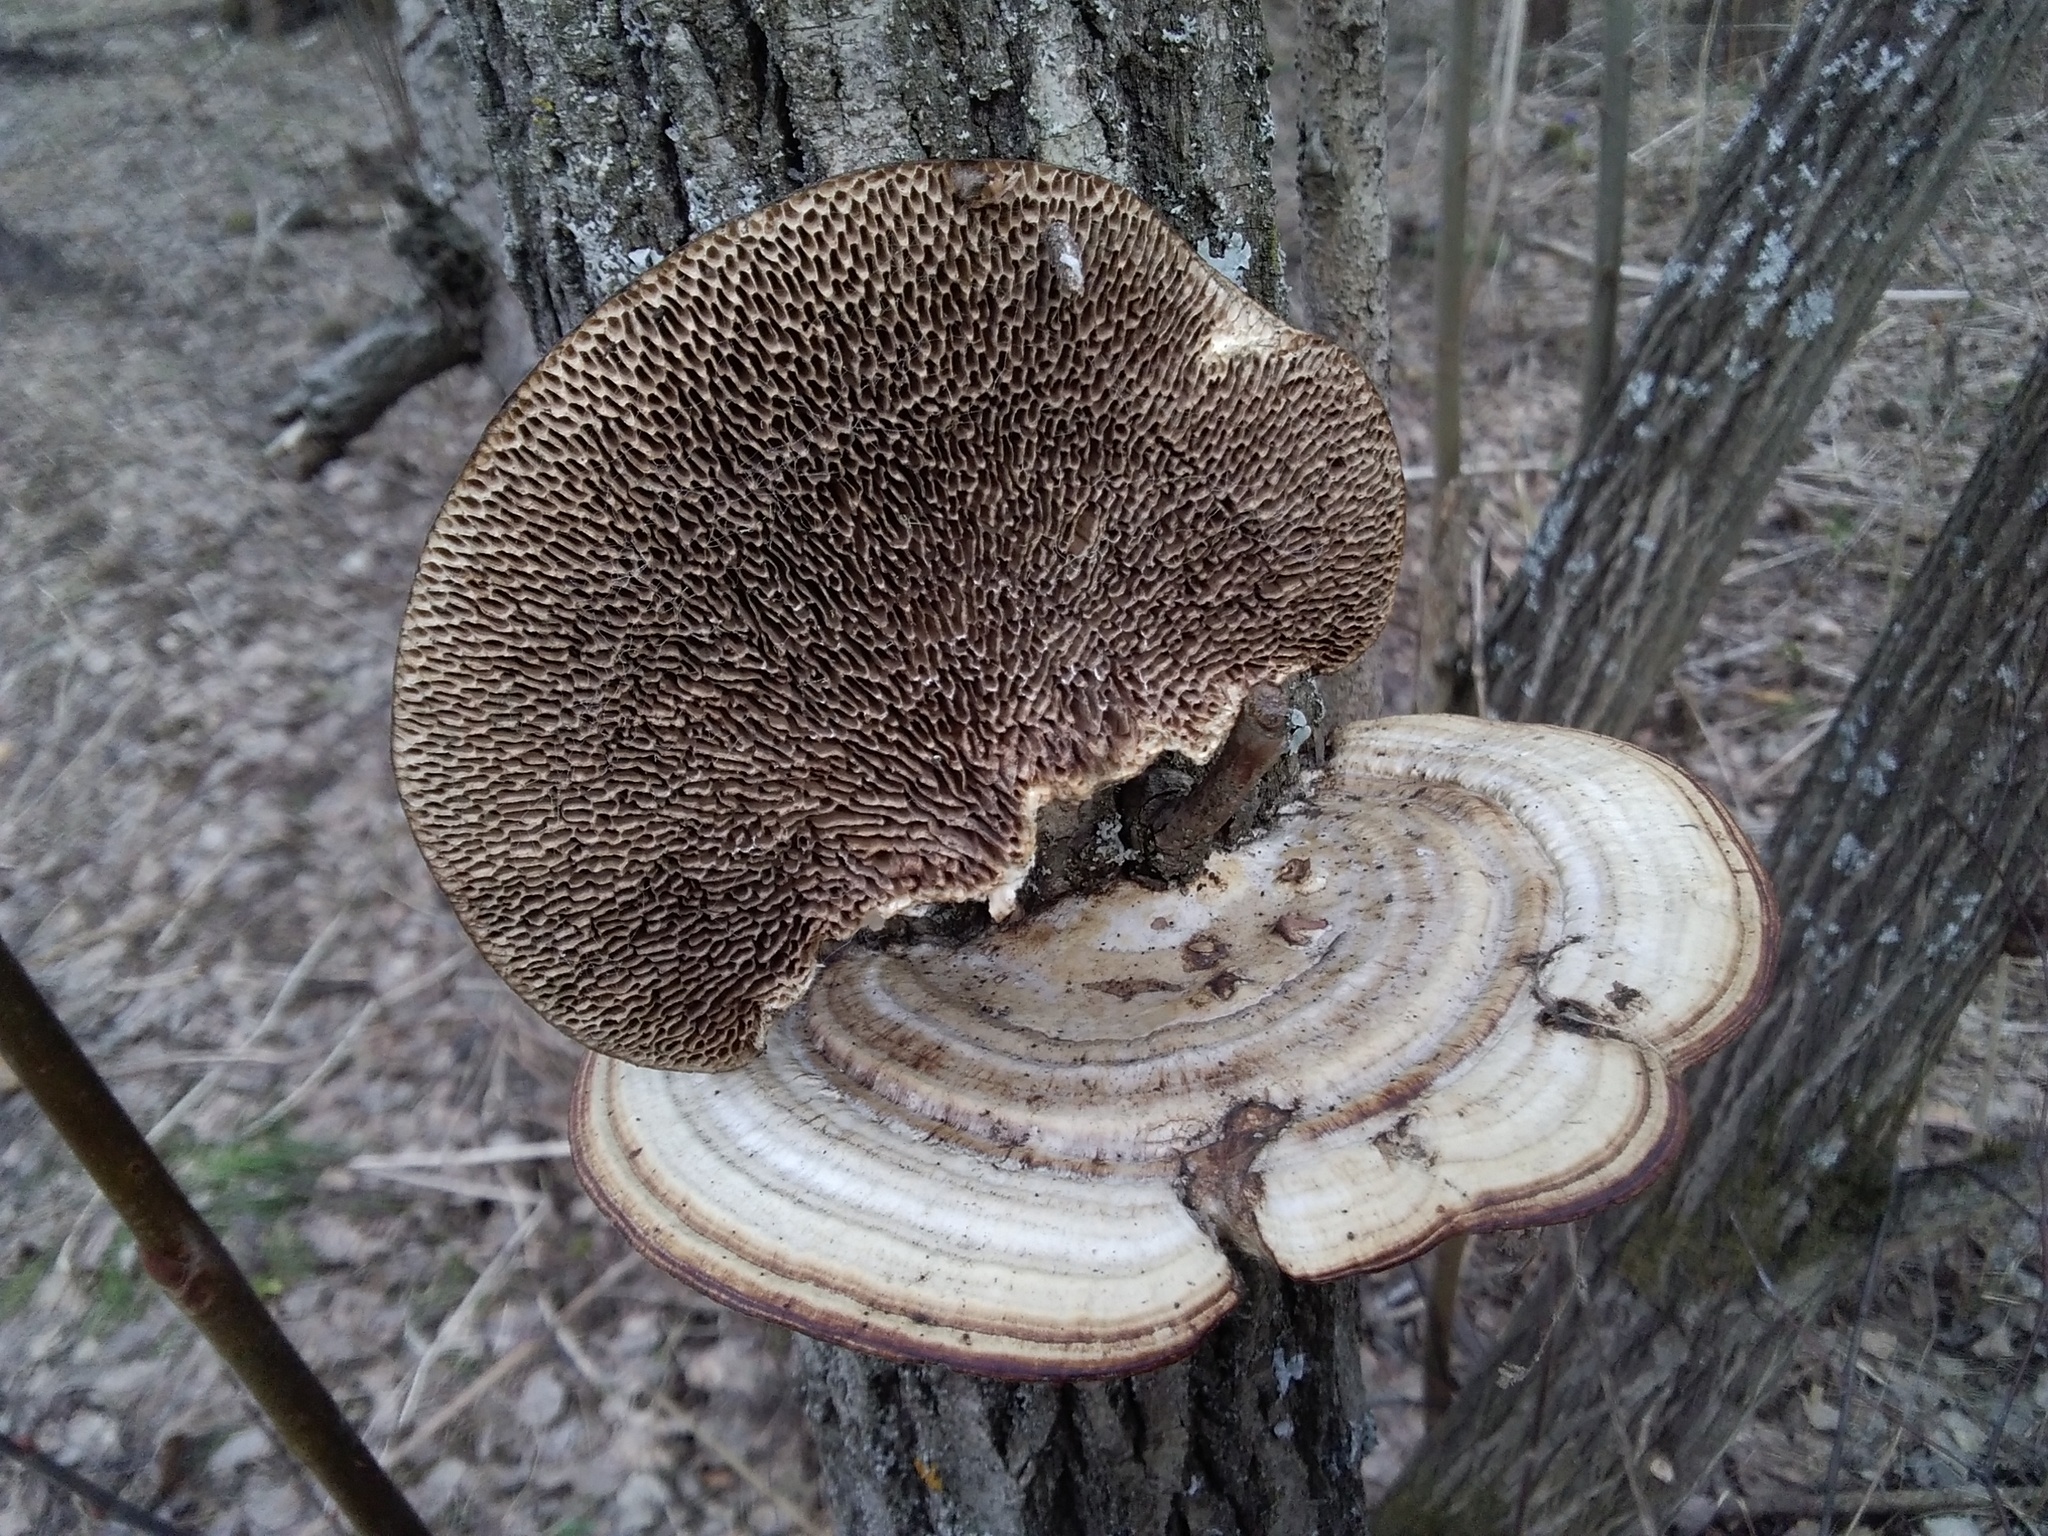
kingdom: Fungi
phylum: Basidiomycota
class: Agaricomycetes
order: Polyporales
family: Polyporaceae
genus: Daedaleopsis
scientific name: Daedaleopsis confragosa
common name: Blushing bracket
